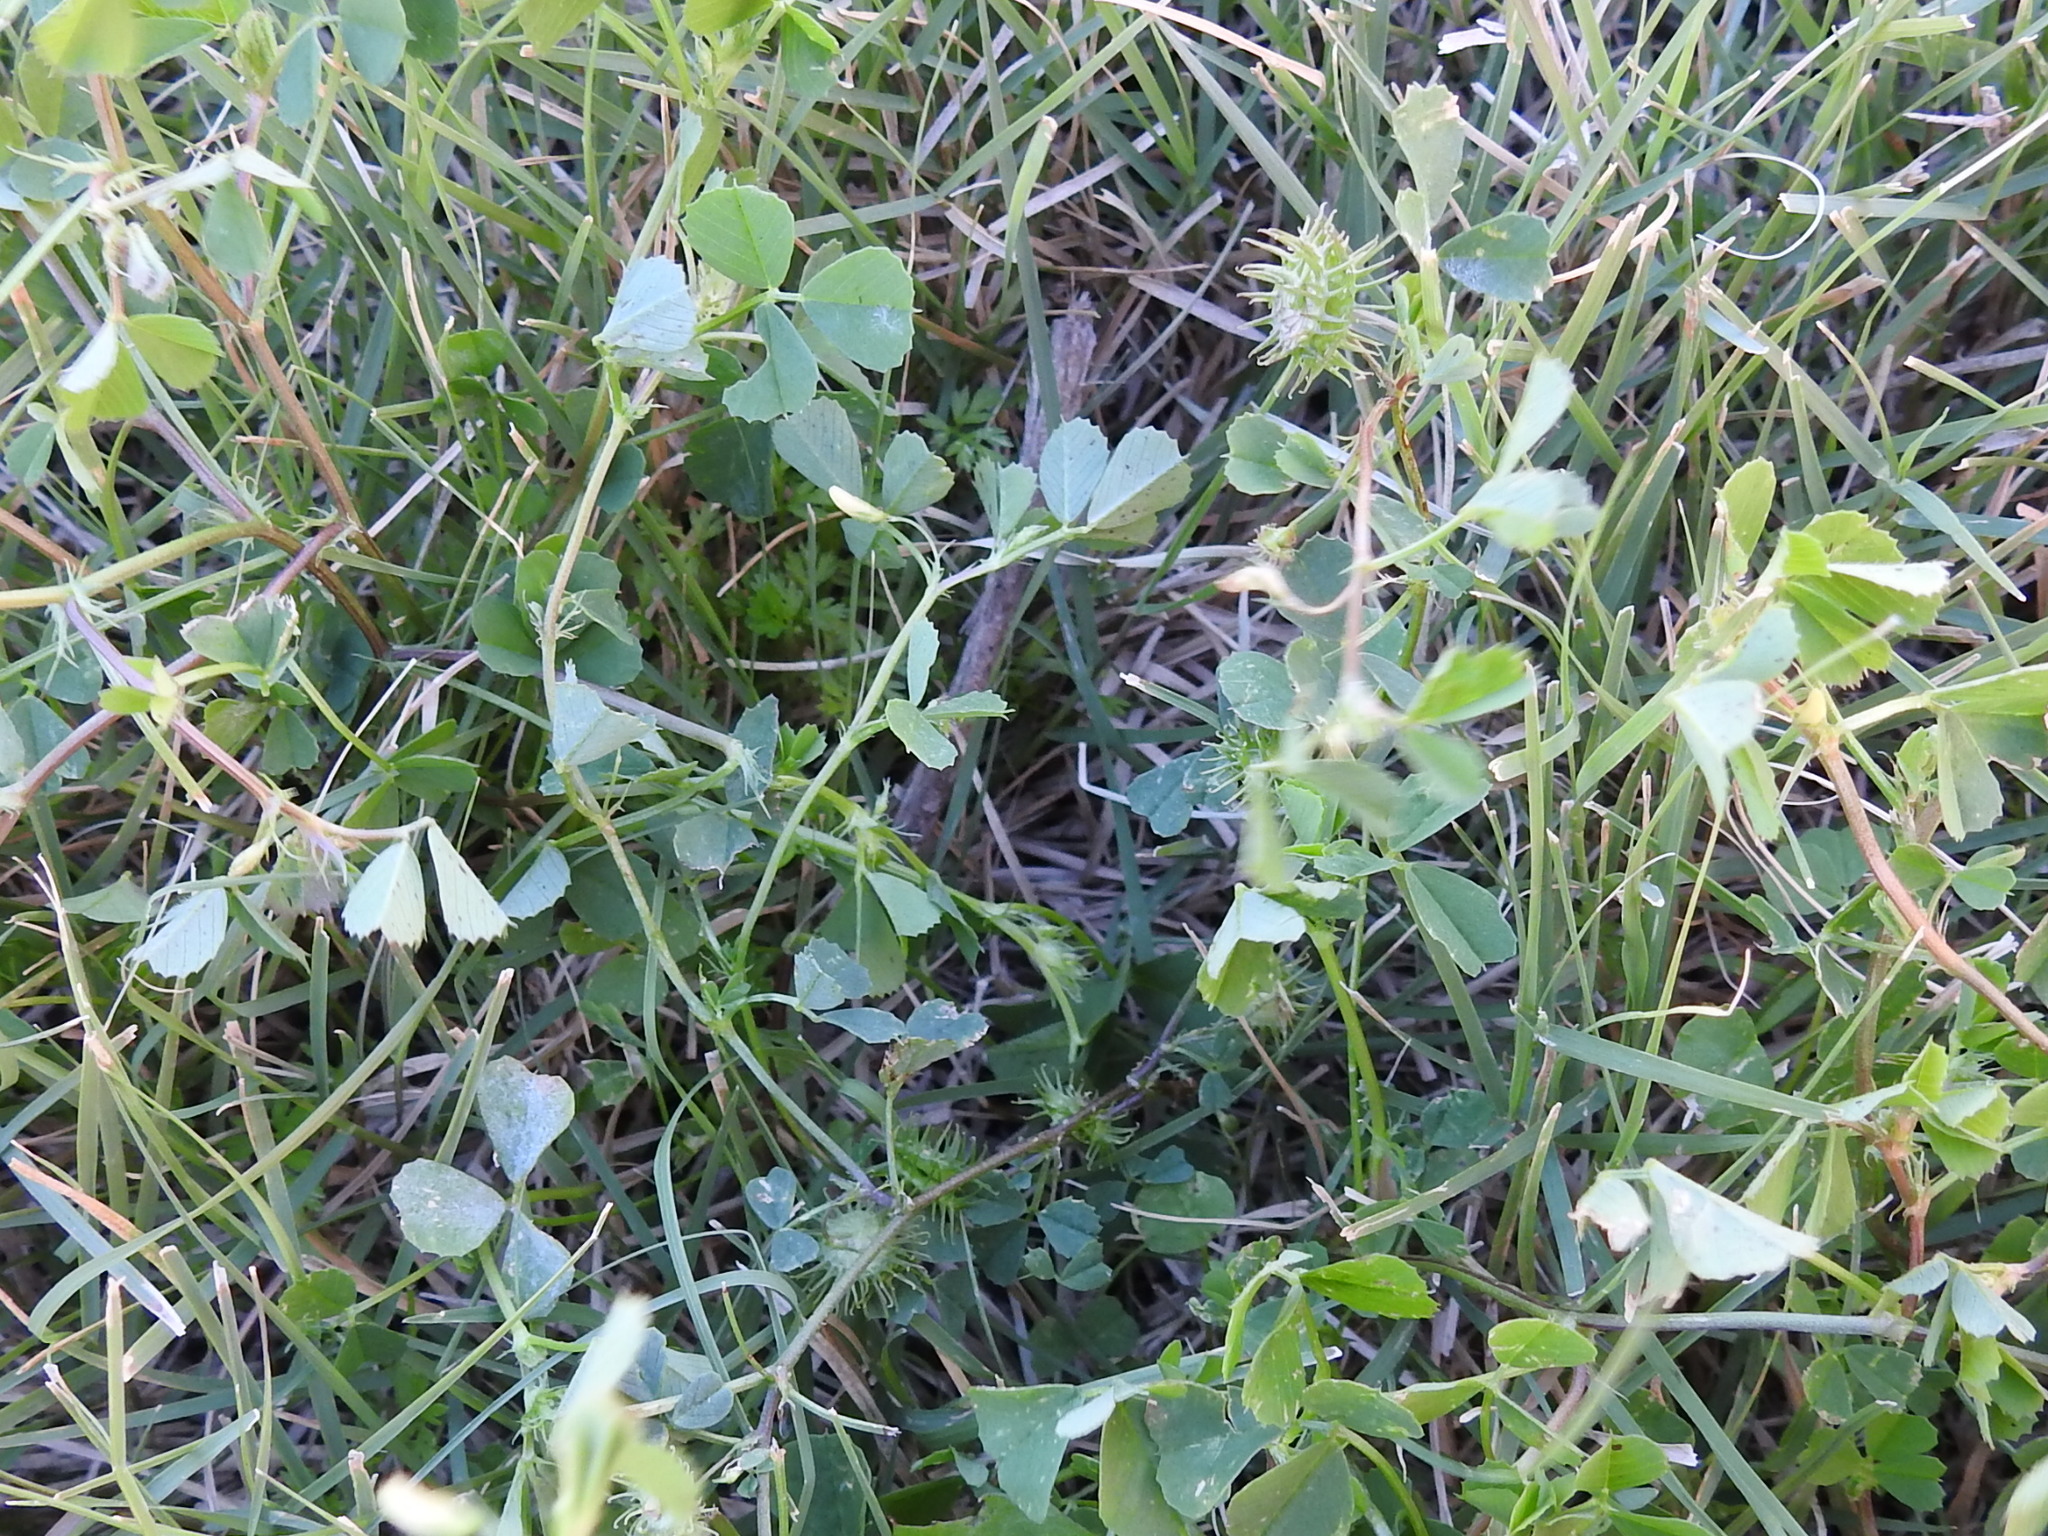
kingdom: Plantae
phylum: Tracheophyta
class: Magnoliopsida
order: Fabales
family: Fabaceae
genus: Medicago
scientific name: Medicago polymorpha
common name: Burclover
